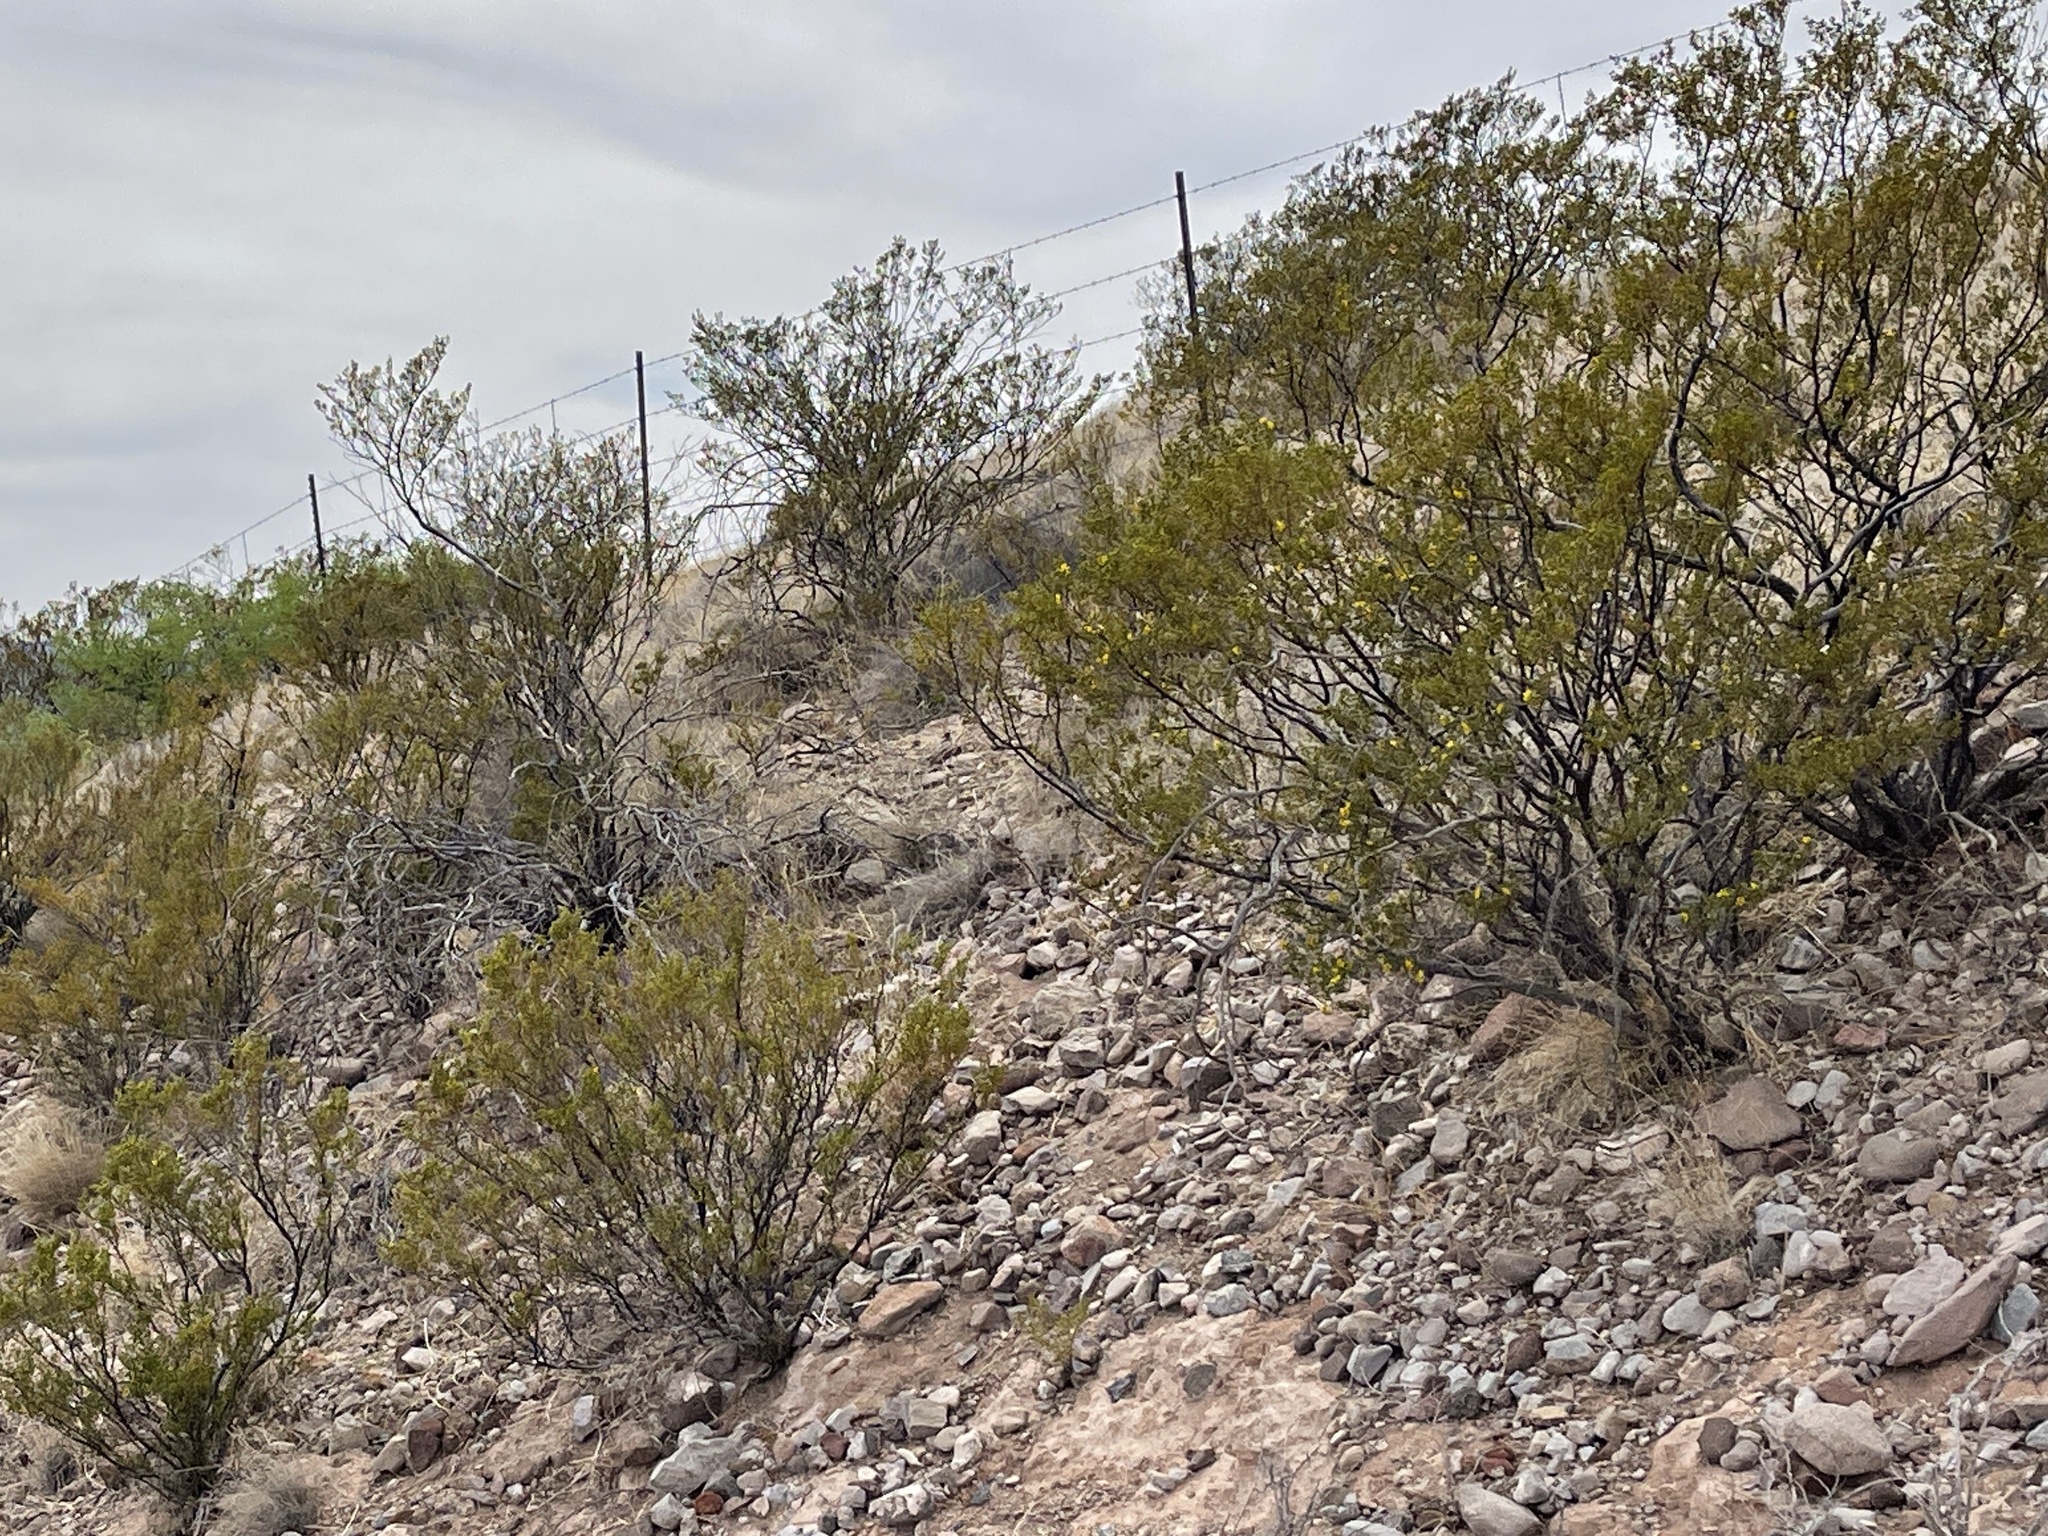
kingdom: Plantae
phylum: Tracheophyta
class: Magnoliopsida
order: Zygophyllales
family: Zygophyllaceae
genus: Larrea
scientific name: Larrea tridentata
